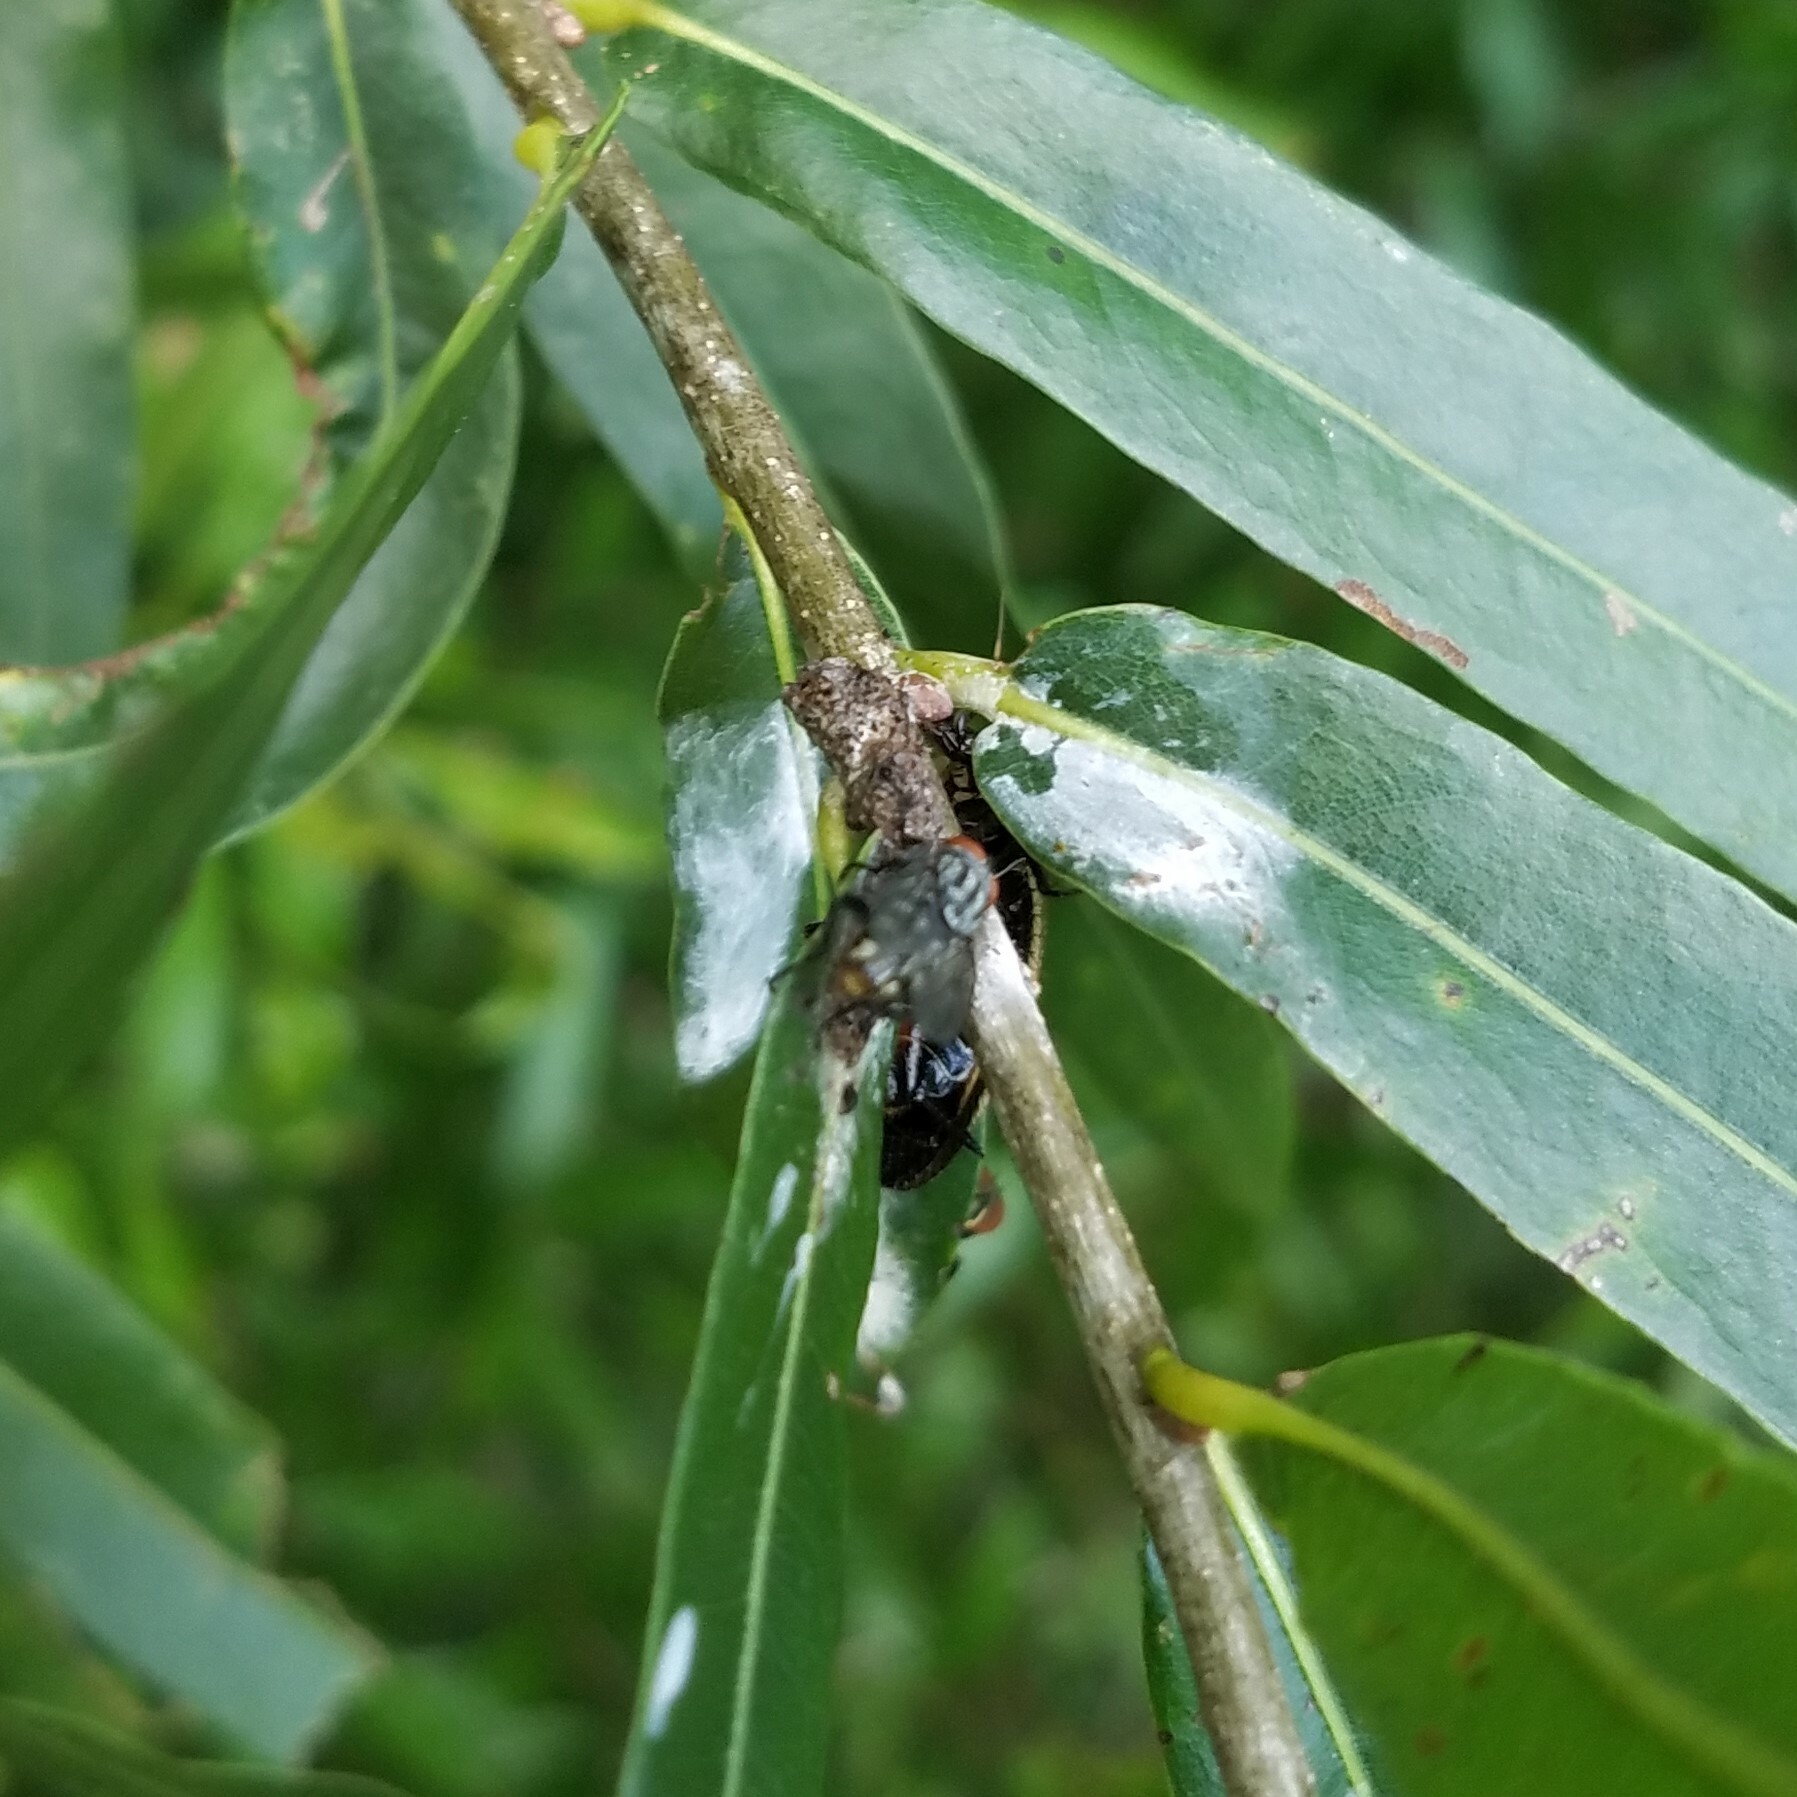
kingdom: Animalia
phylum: Arthropoda
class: Insecta
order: Blattodea
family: Ectobiidae
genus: Pseudomops
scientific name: Pseudomops septentrionalis
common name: Pale-bordered field cockroach
